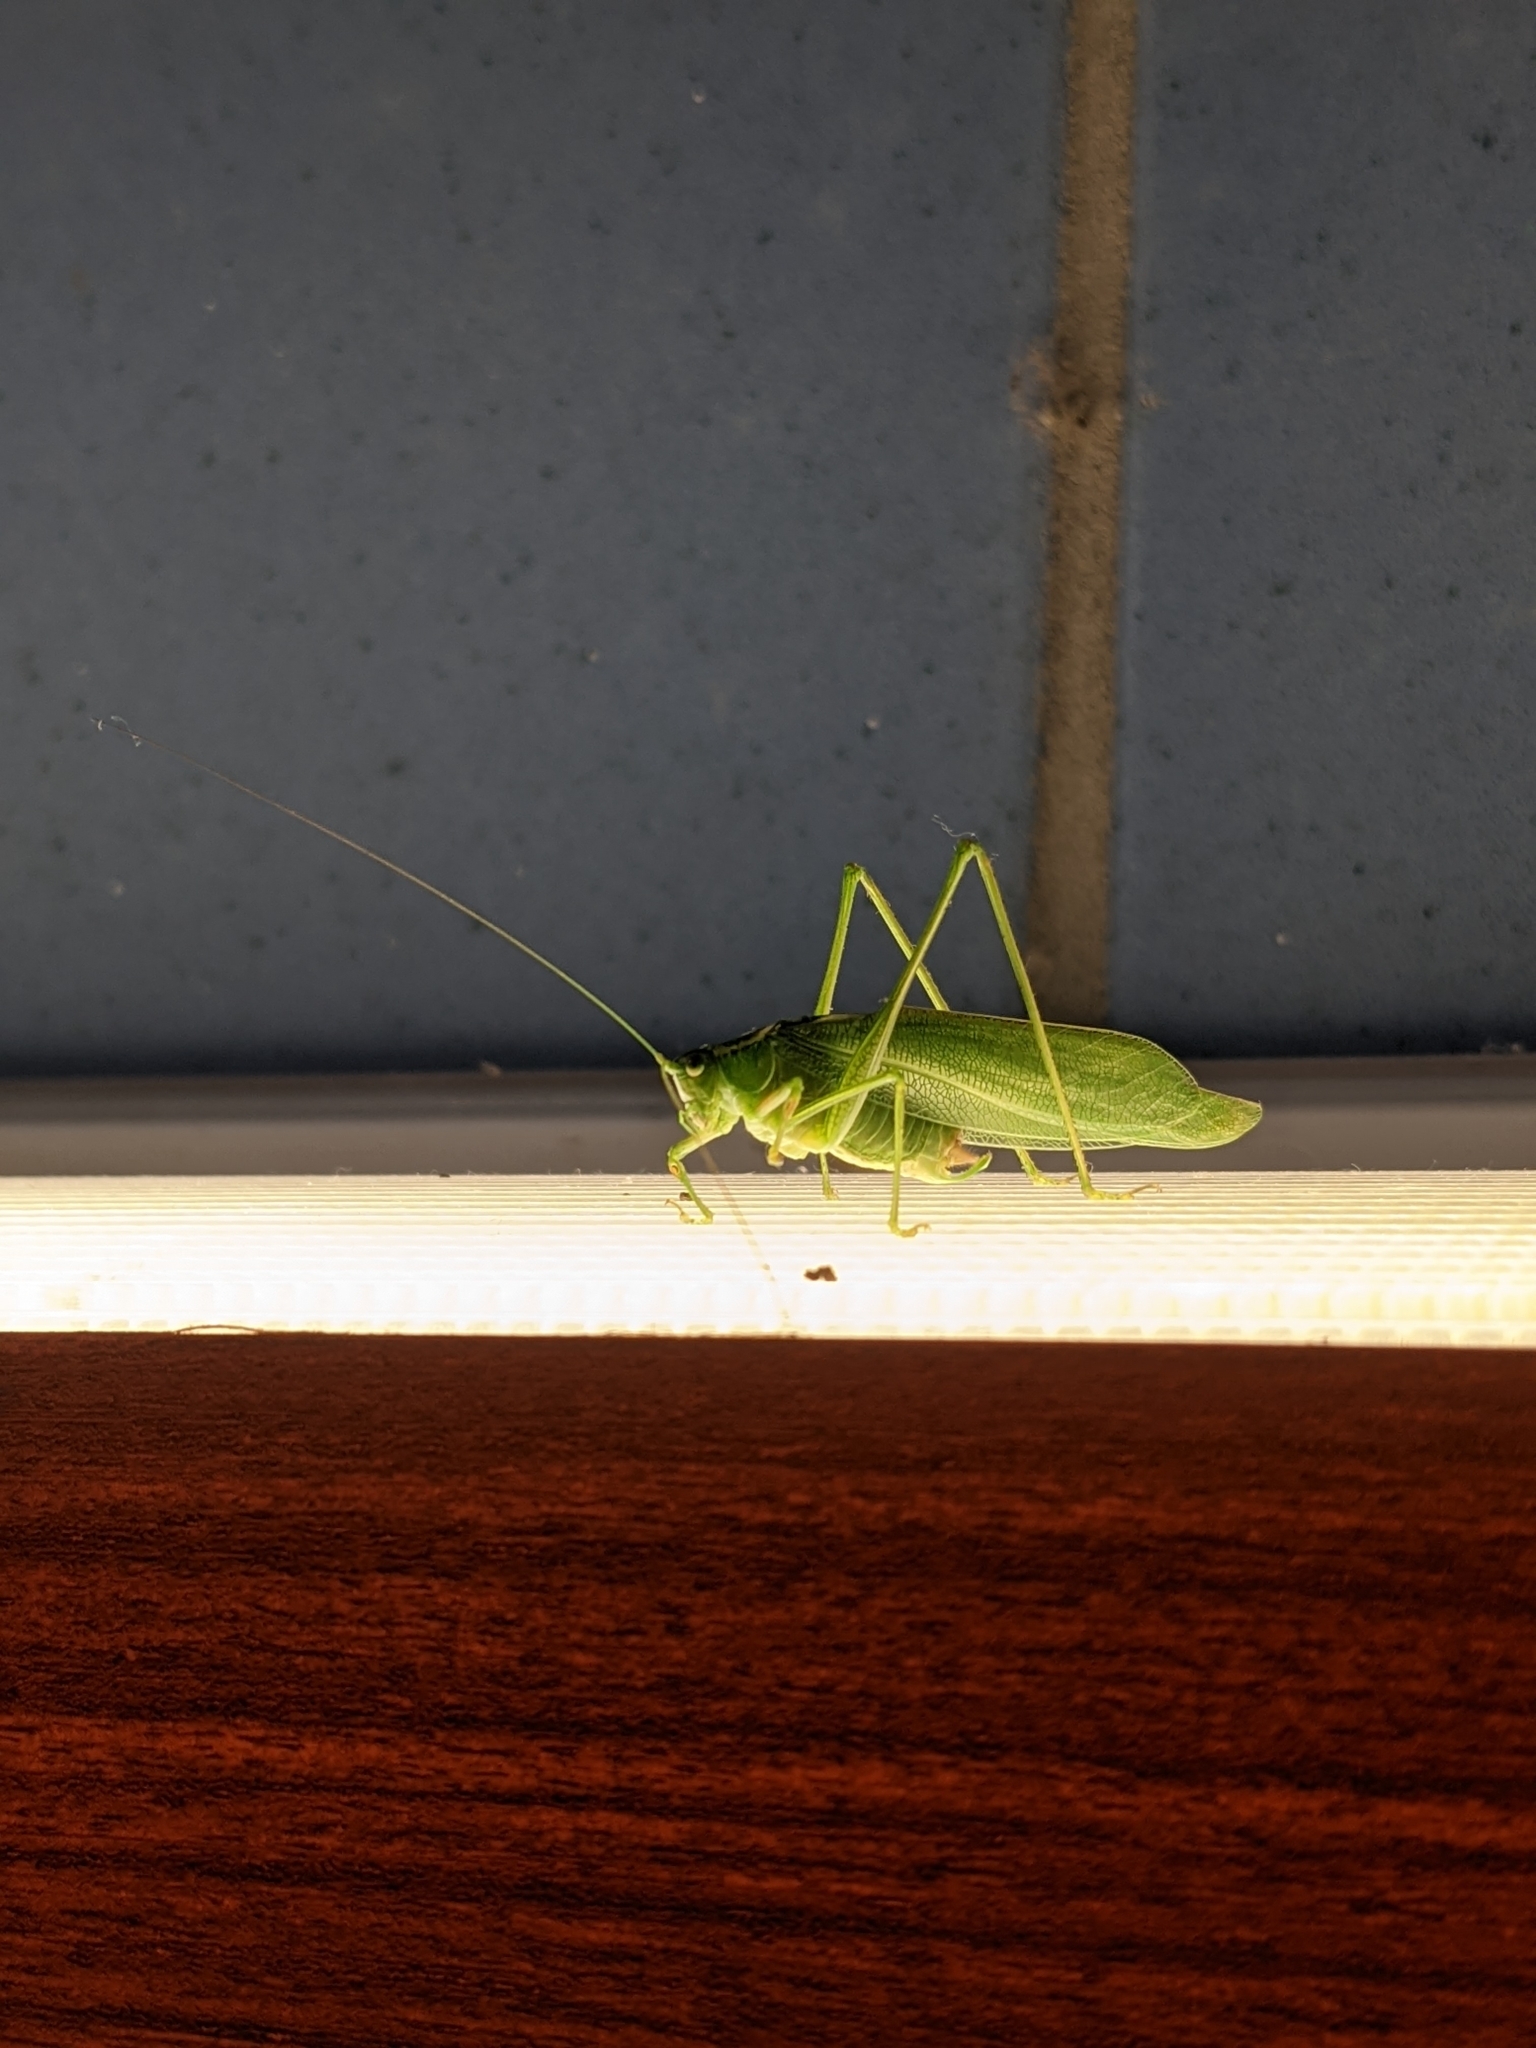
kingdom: Animalia
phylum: Arthropoda
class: Insecta
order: Orthoptera
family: Tettigoniidae
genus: Scudderia
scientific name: Scudderia septentrionalis
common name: Northern bush-katydid
